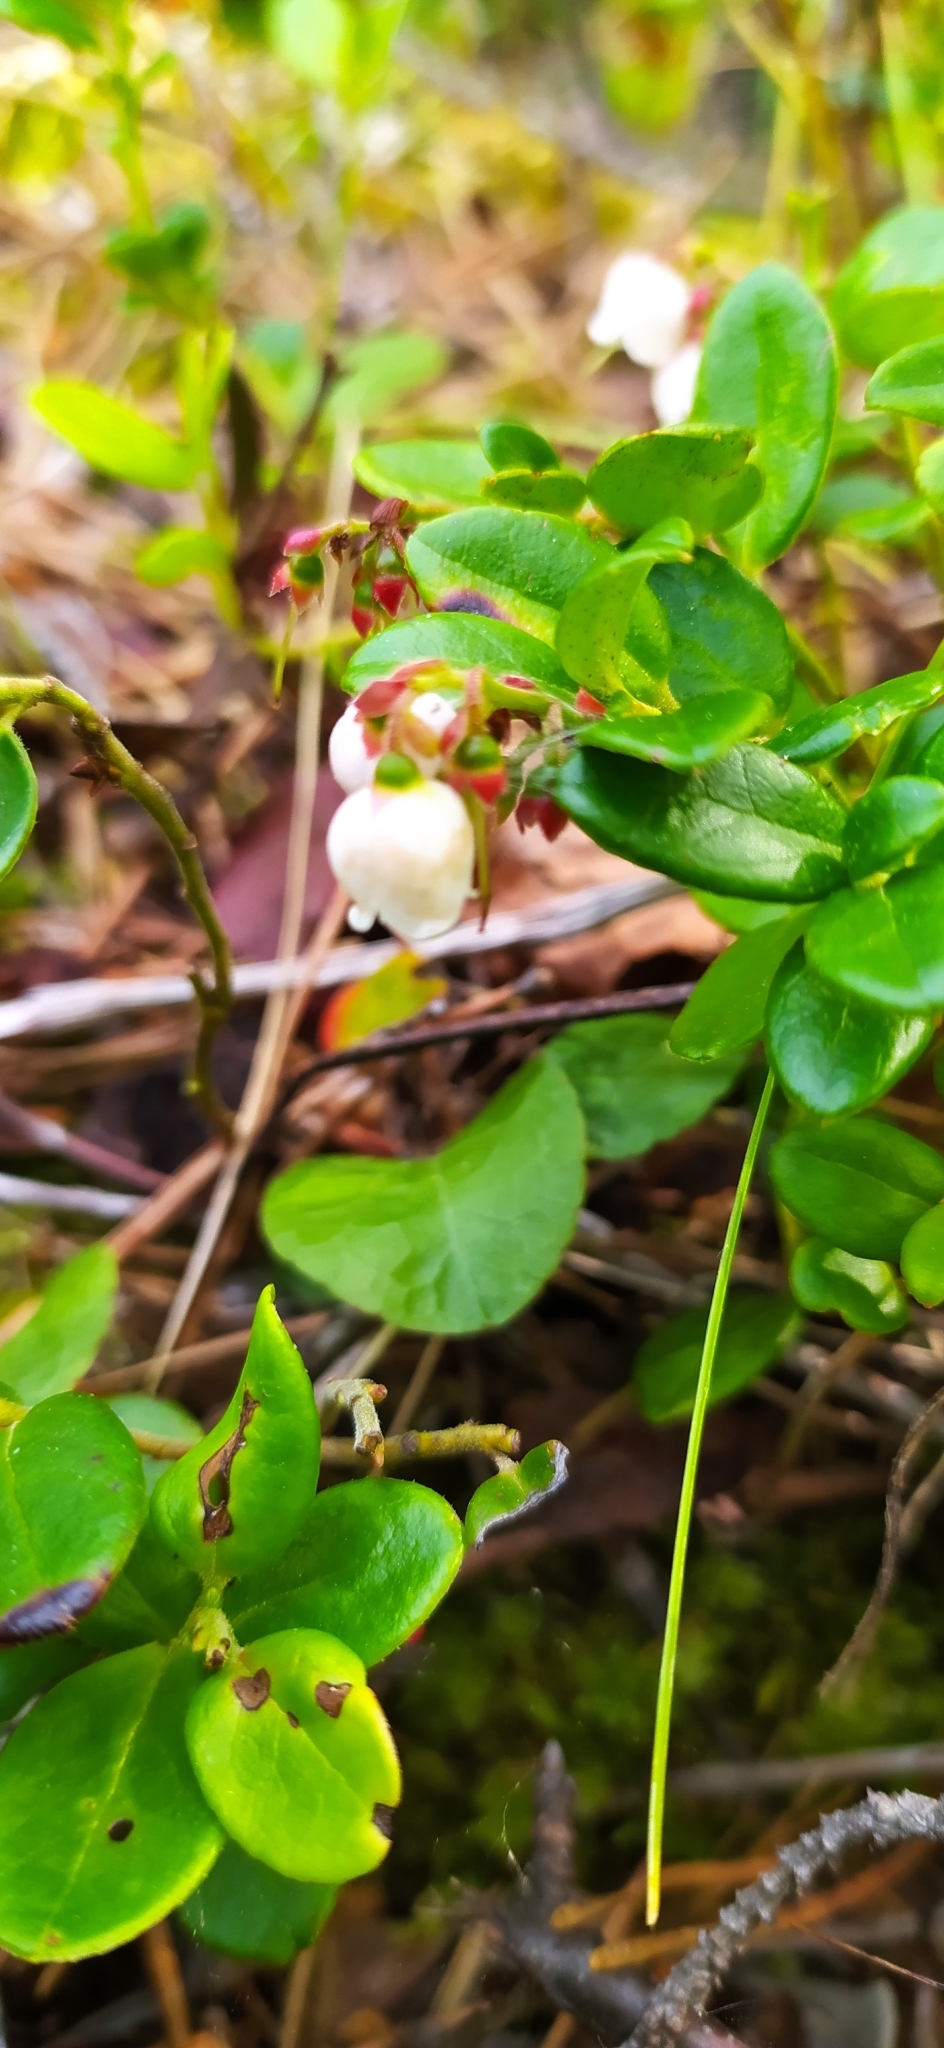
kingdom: Plantae
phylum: Tracheophyta
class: Magnoliopsida
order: Ericales
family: Ericaceae
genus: Vaccinium
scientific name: Vaccinium vitis-idaea
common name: Cowberry
